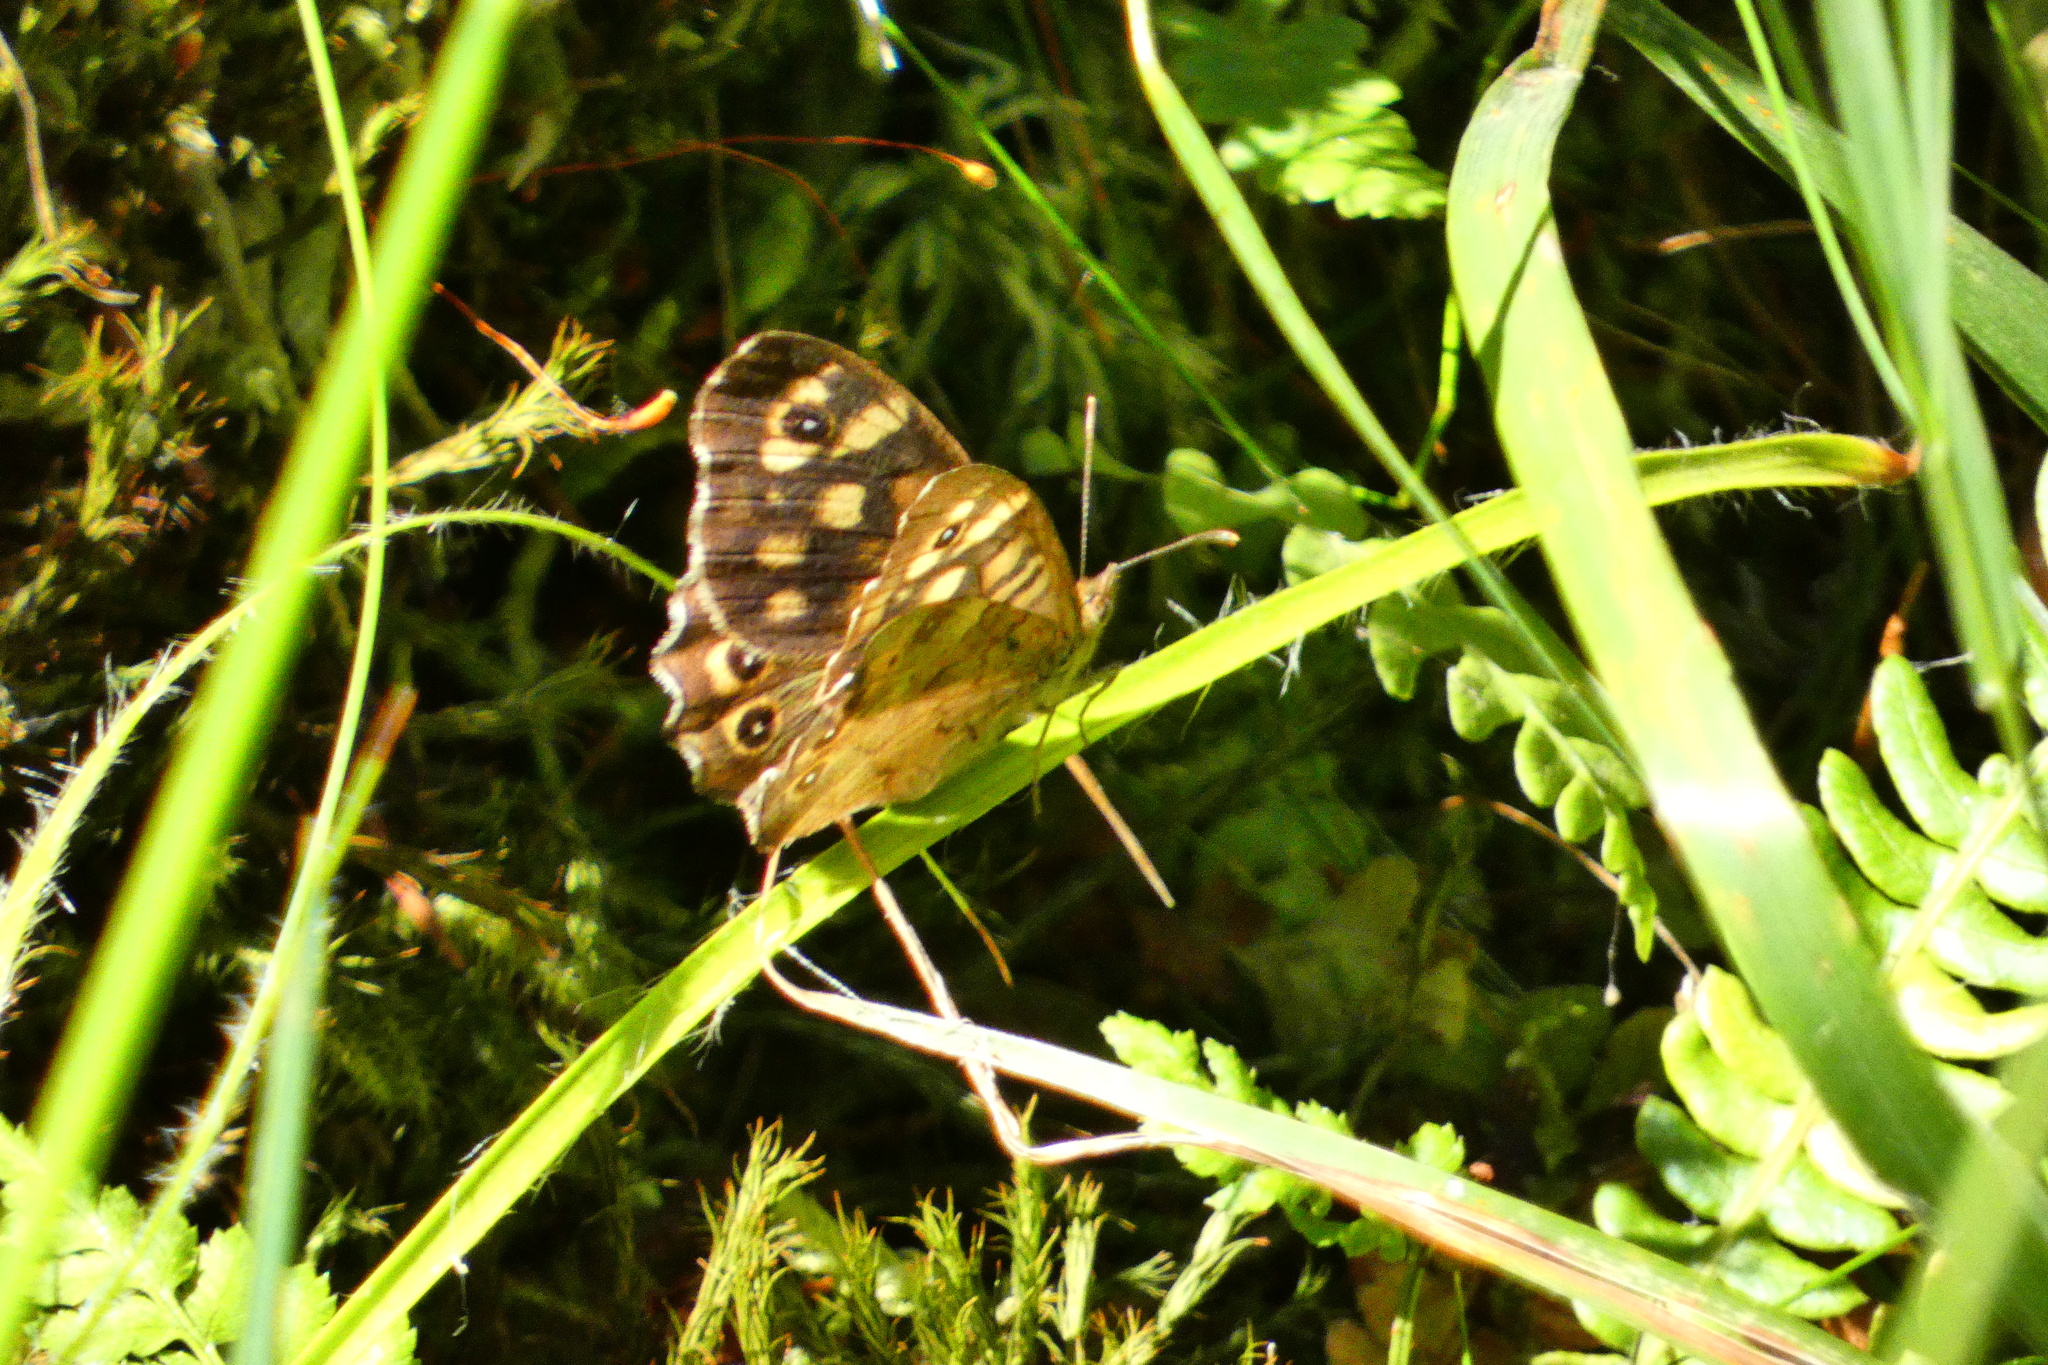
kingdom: Animalia
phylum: Arthropoda
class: Insecta
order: Lepidoptera
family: Nymphalidae
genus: Pararge
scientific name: Pararge aegeria
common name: Speckled wood
